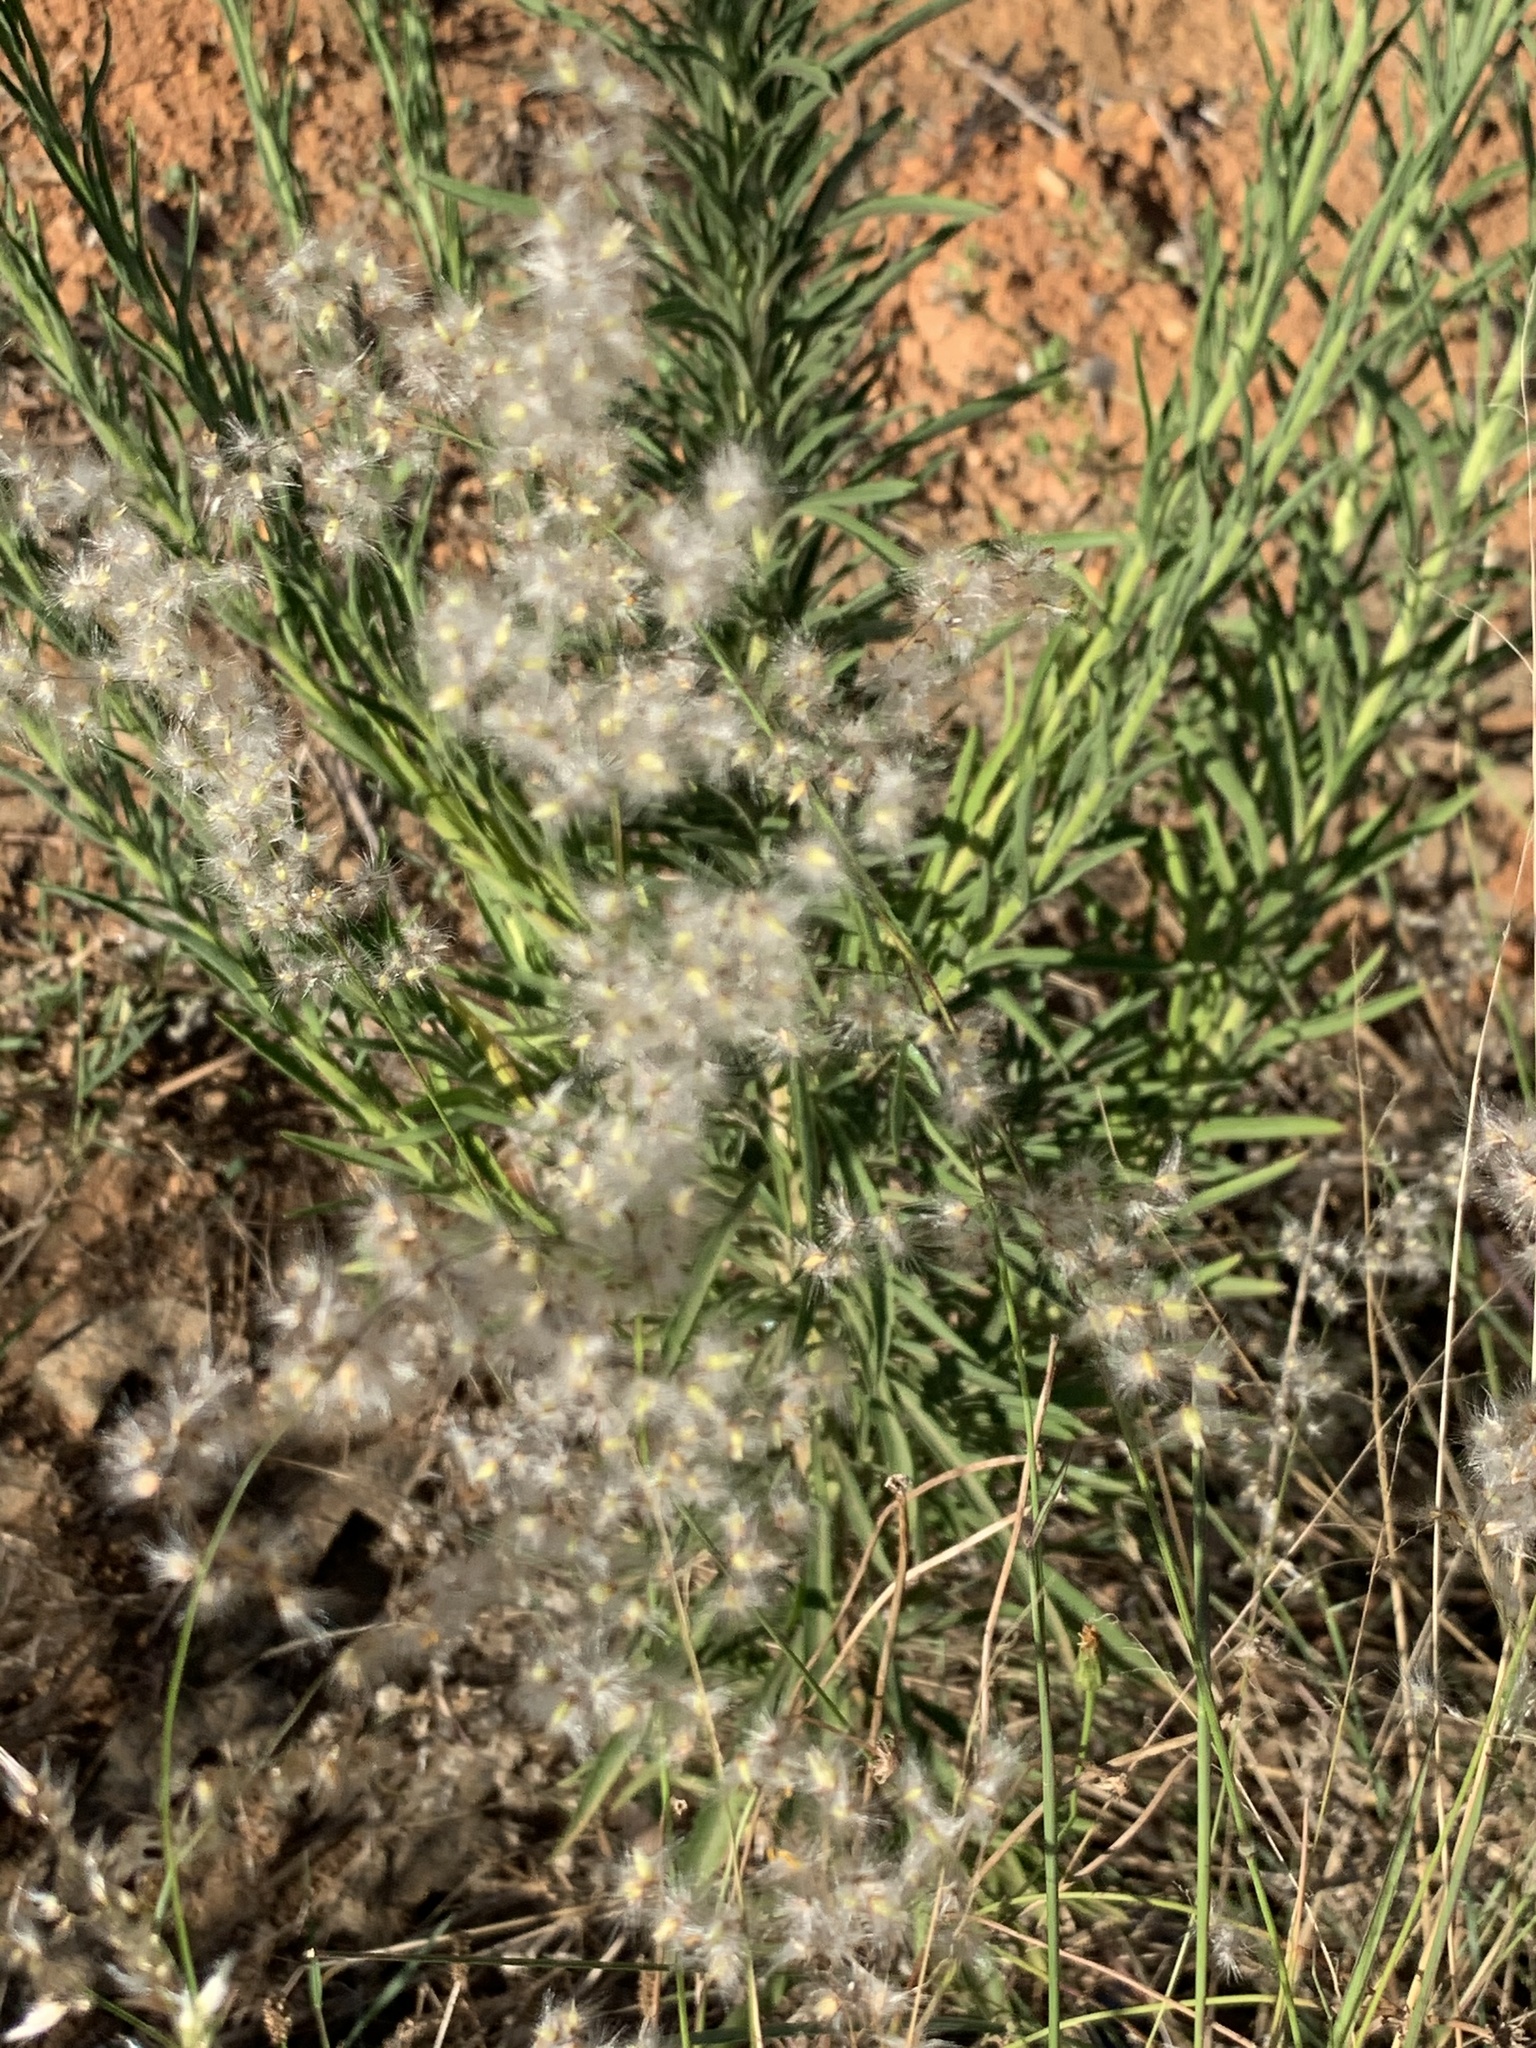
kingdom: Plantae
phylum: Tracheophyta
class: Liliopsida
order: Poales
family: Poaceae
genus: Melinis
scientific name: Melinis repens
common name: Rose natal grass
